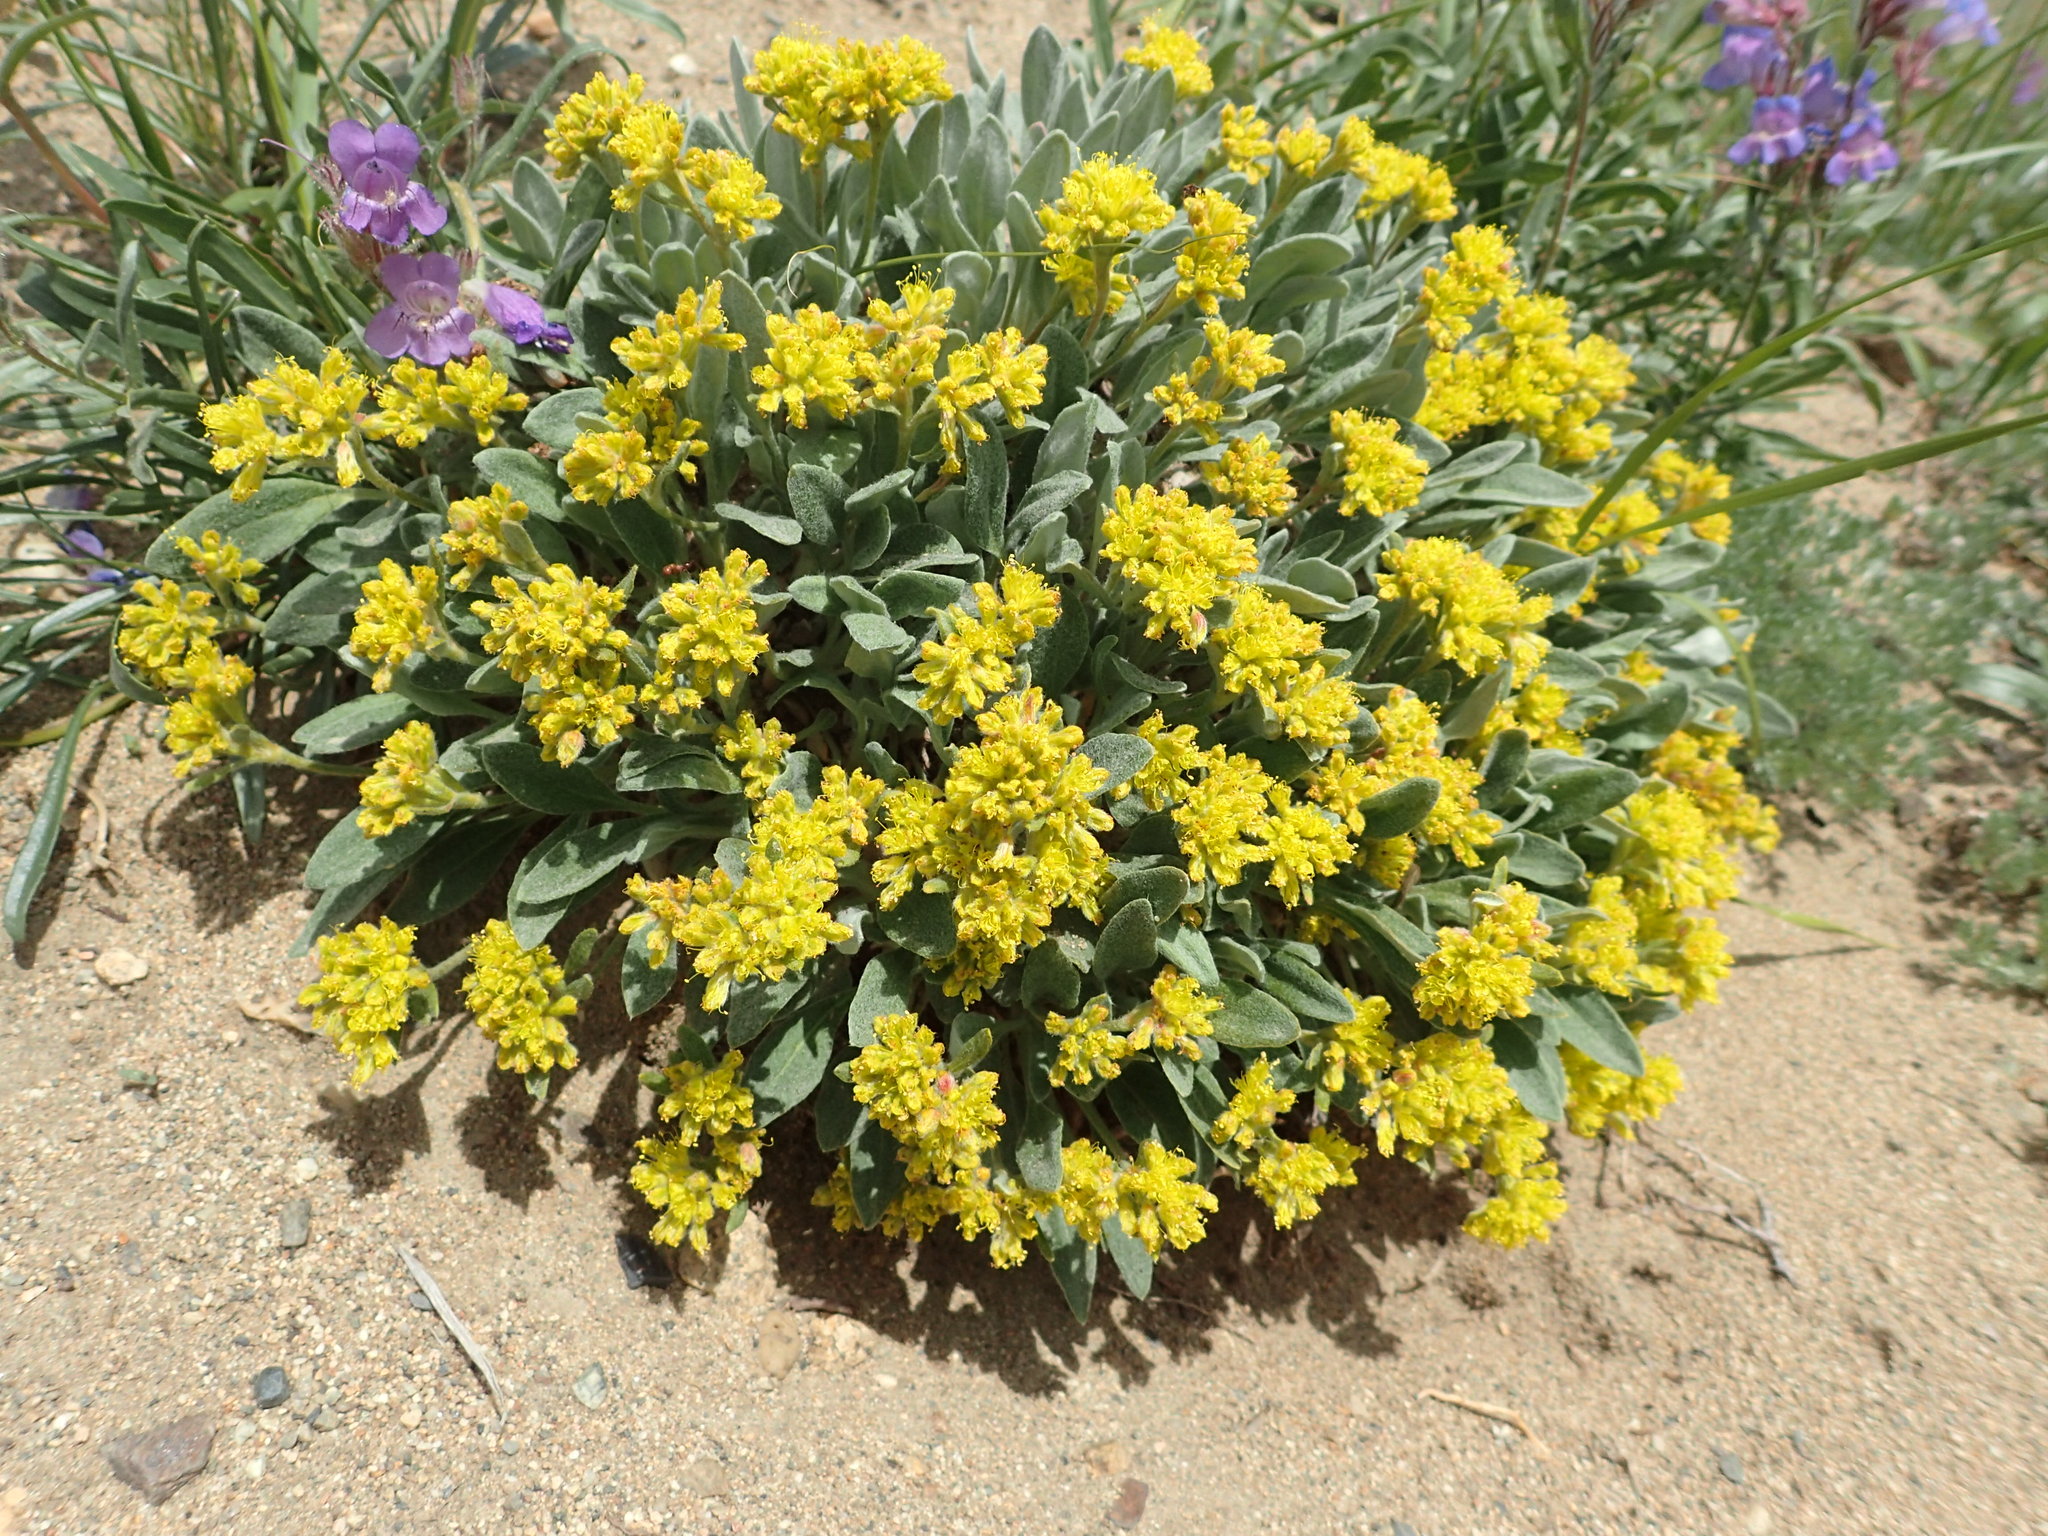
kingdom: Plantae
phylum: Tracheophyta
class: Magnoliopsida
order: Caryophyllales
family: Polygonaceae
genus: Eriogonum
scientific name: Eriogonum flavum
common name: Alpine golden wild buckwheat
